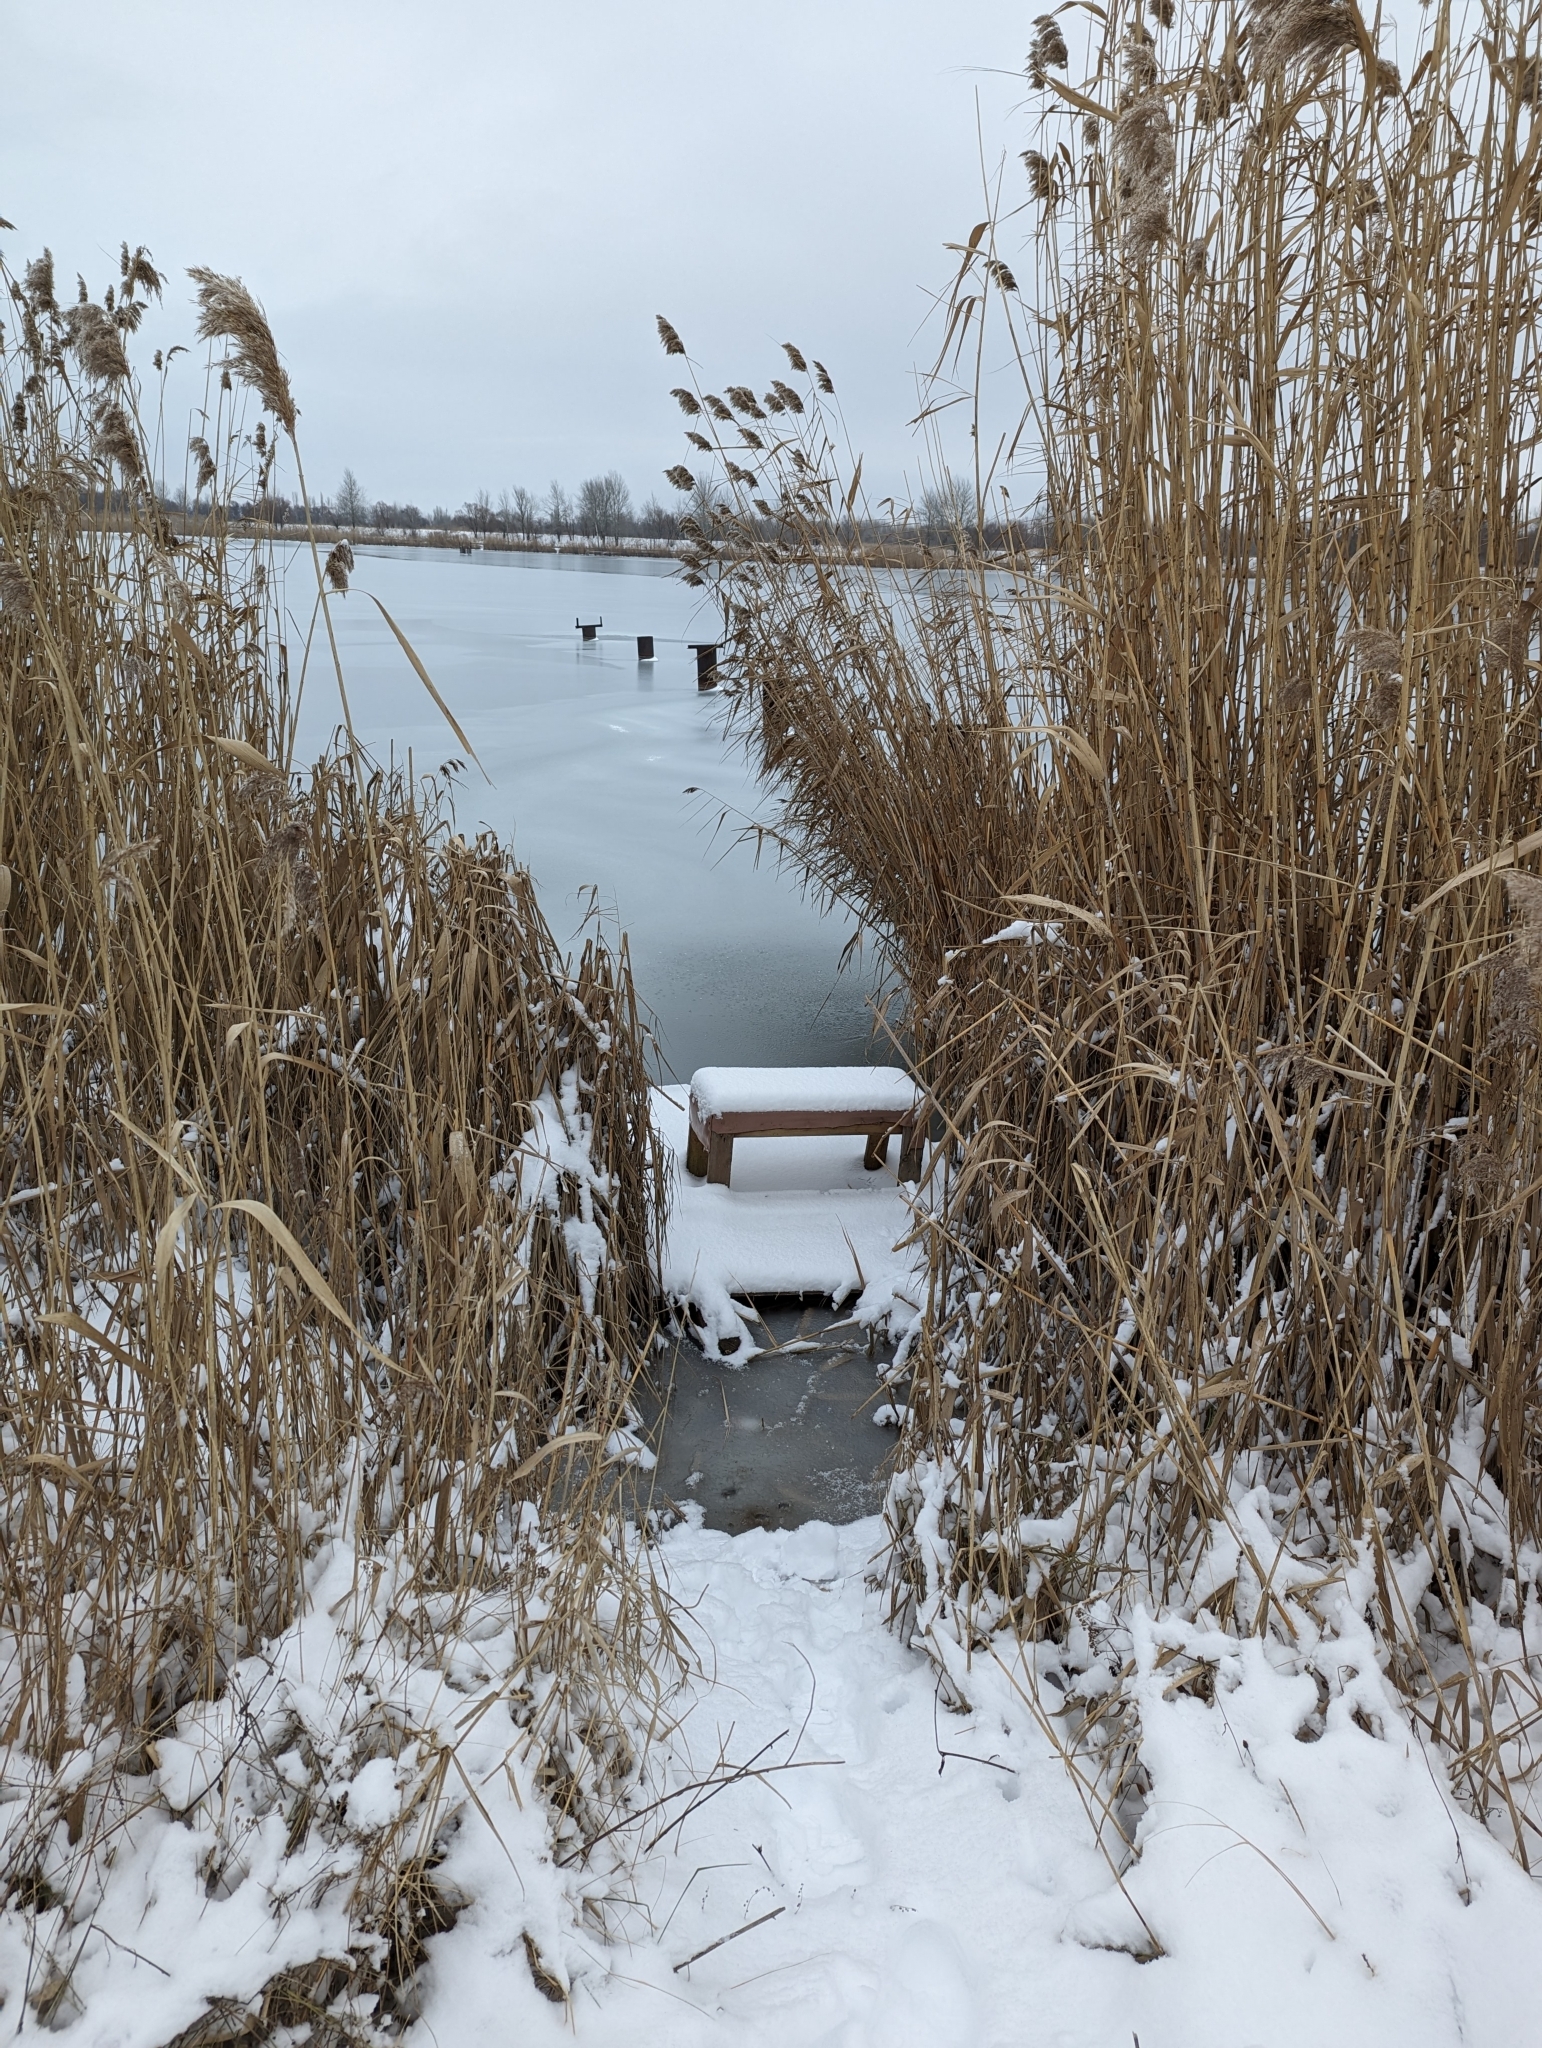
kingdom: Plantae
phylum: Tracheophyta
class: Liliopsida
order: Poales
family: Poaceae
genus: Phragmites
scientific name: Phragmites australis
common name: Common reed
